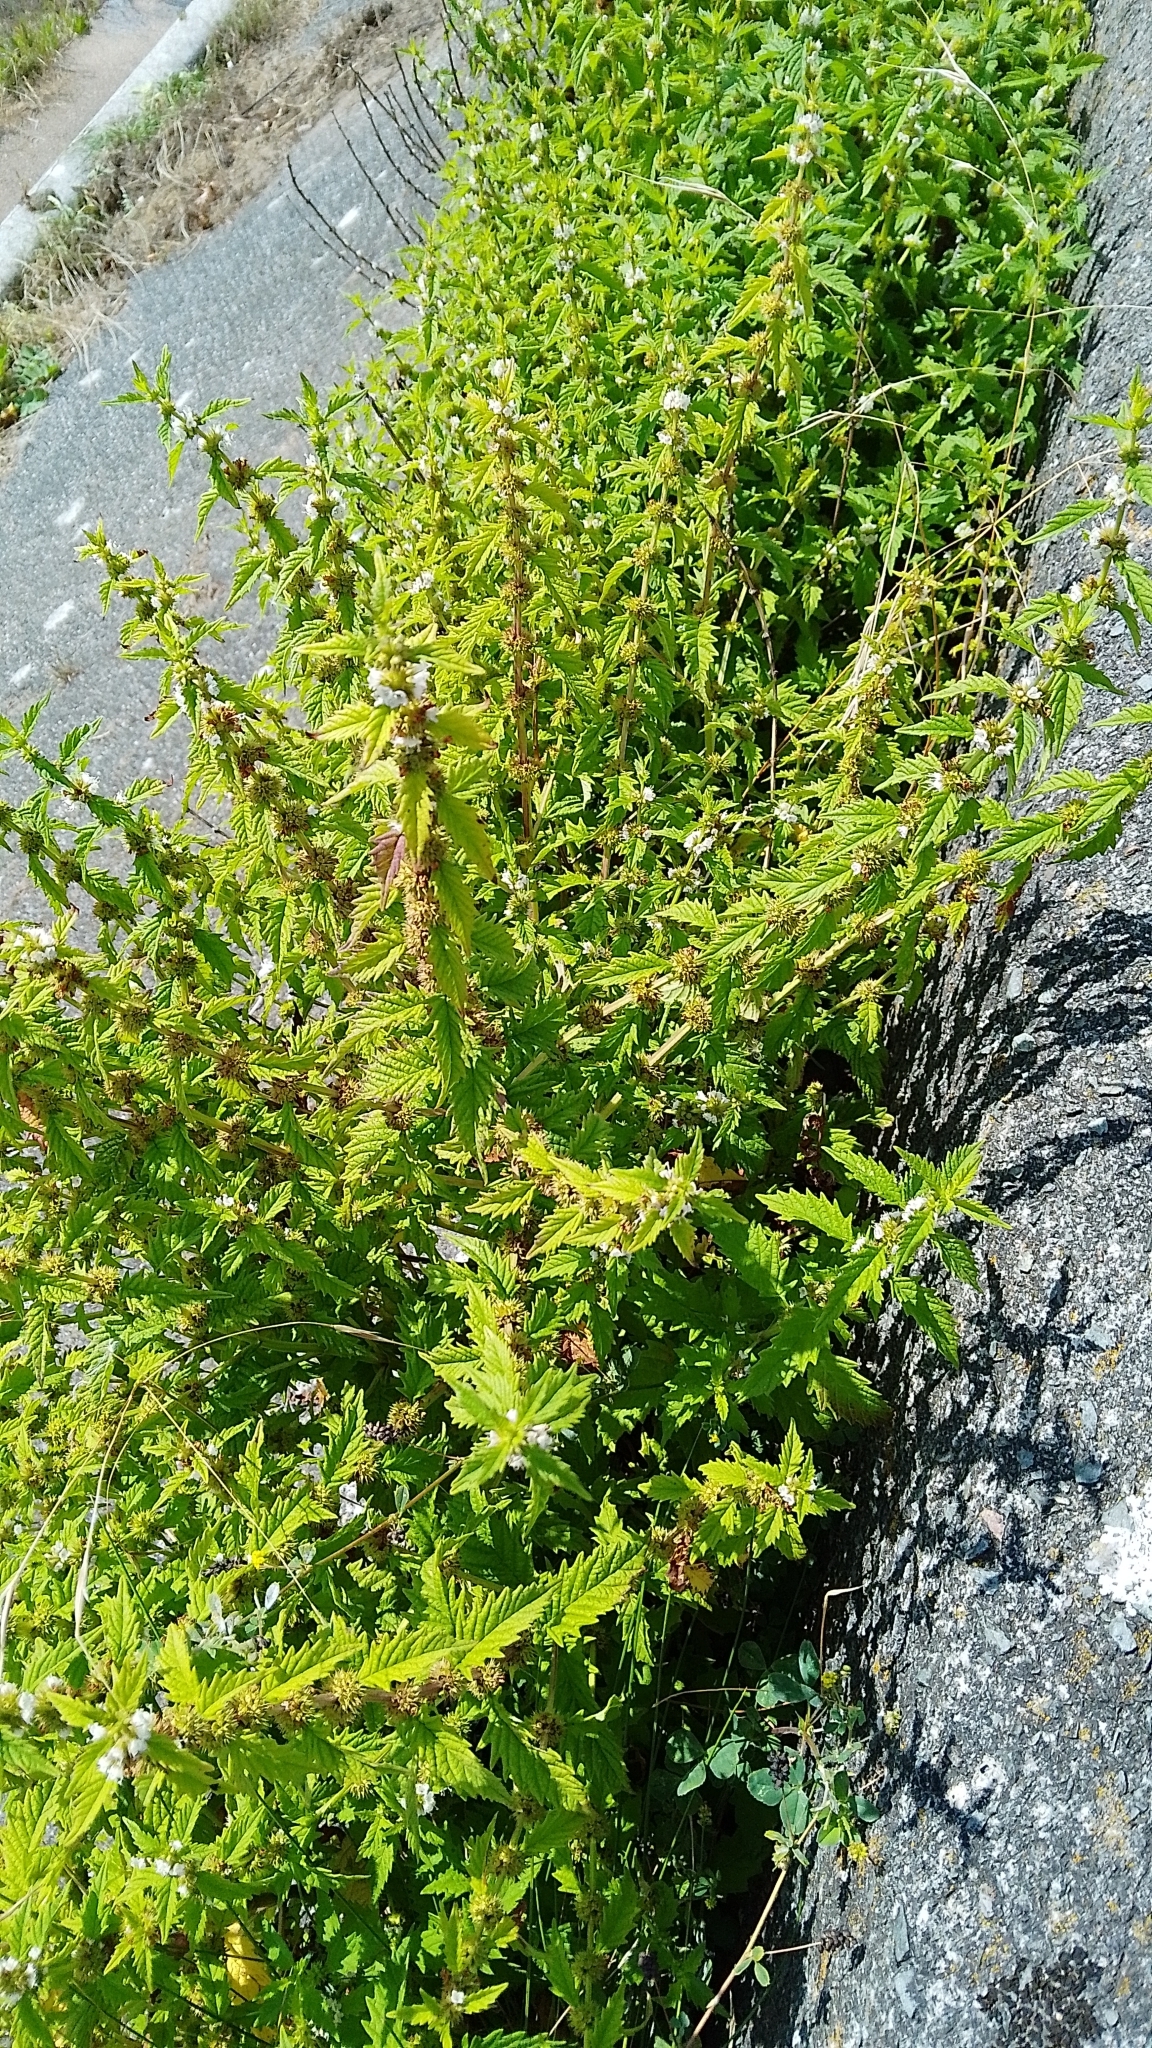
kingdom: Plantae
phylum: Tracheophyta
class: Magnoliopsida
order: Lamiales
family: Lamiaceae
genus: Lycopus
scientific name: Lycopus europaeus
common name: European bugleweed
